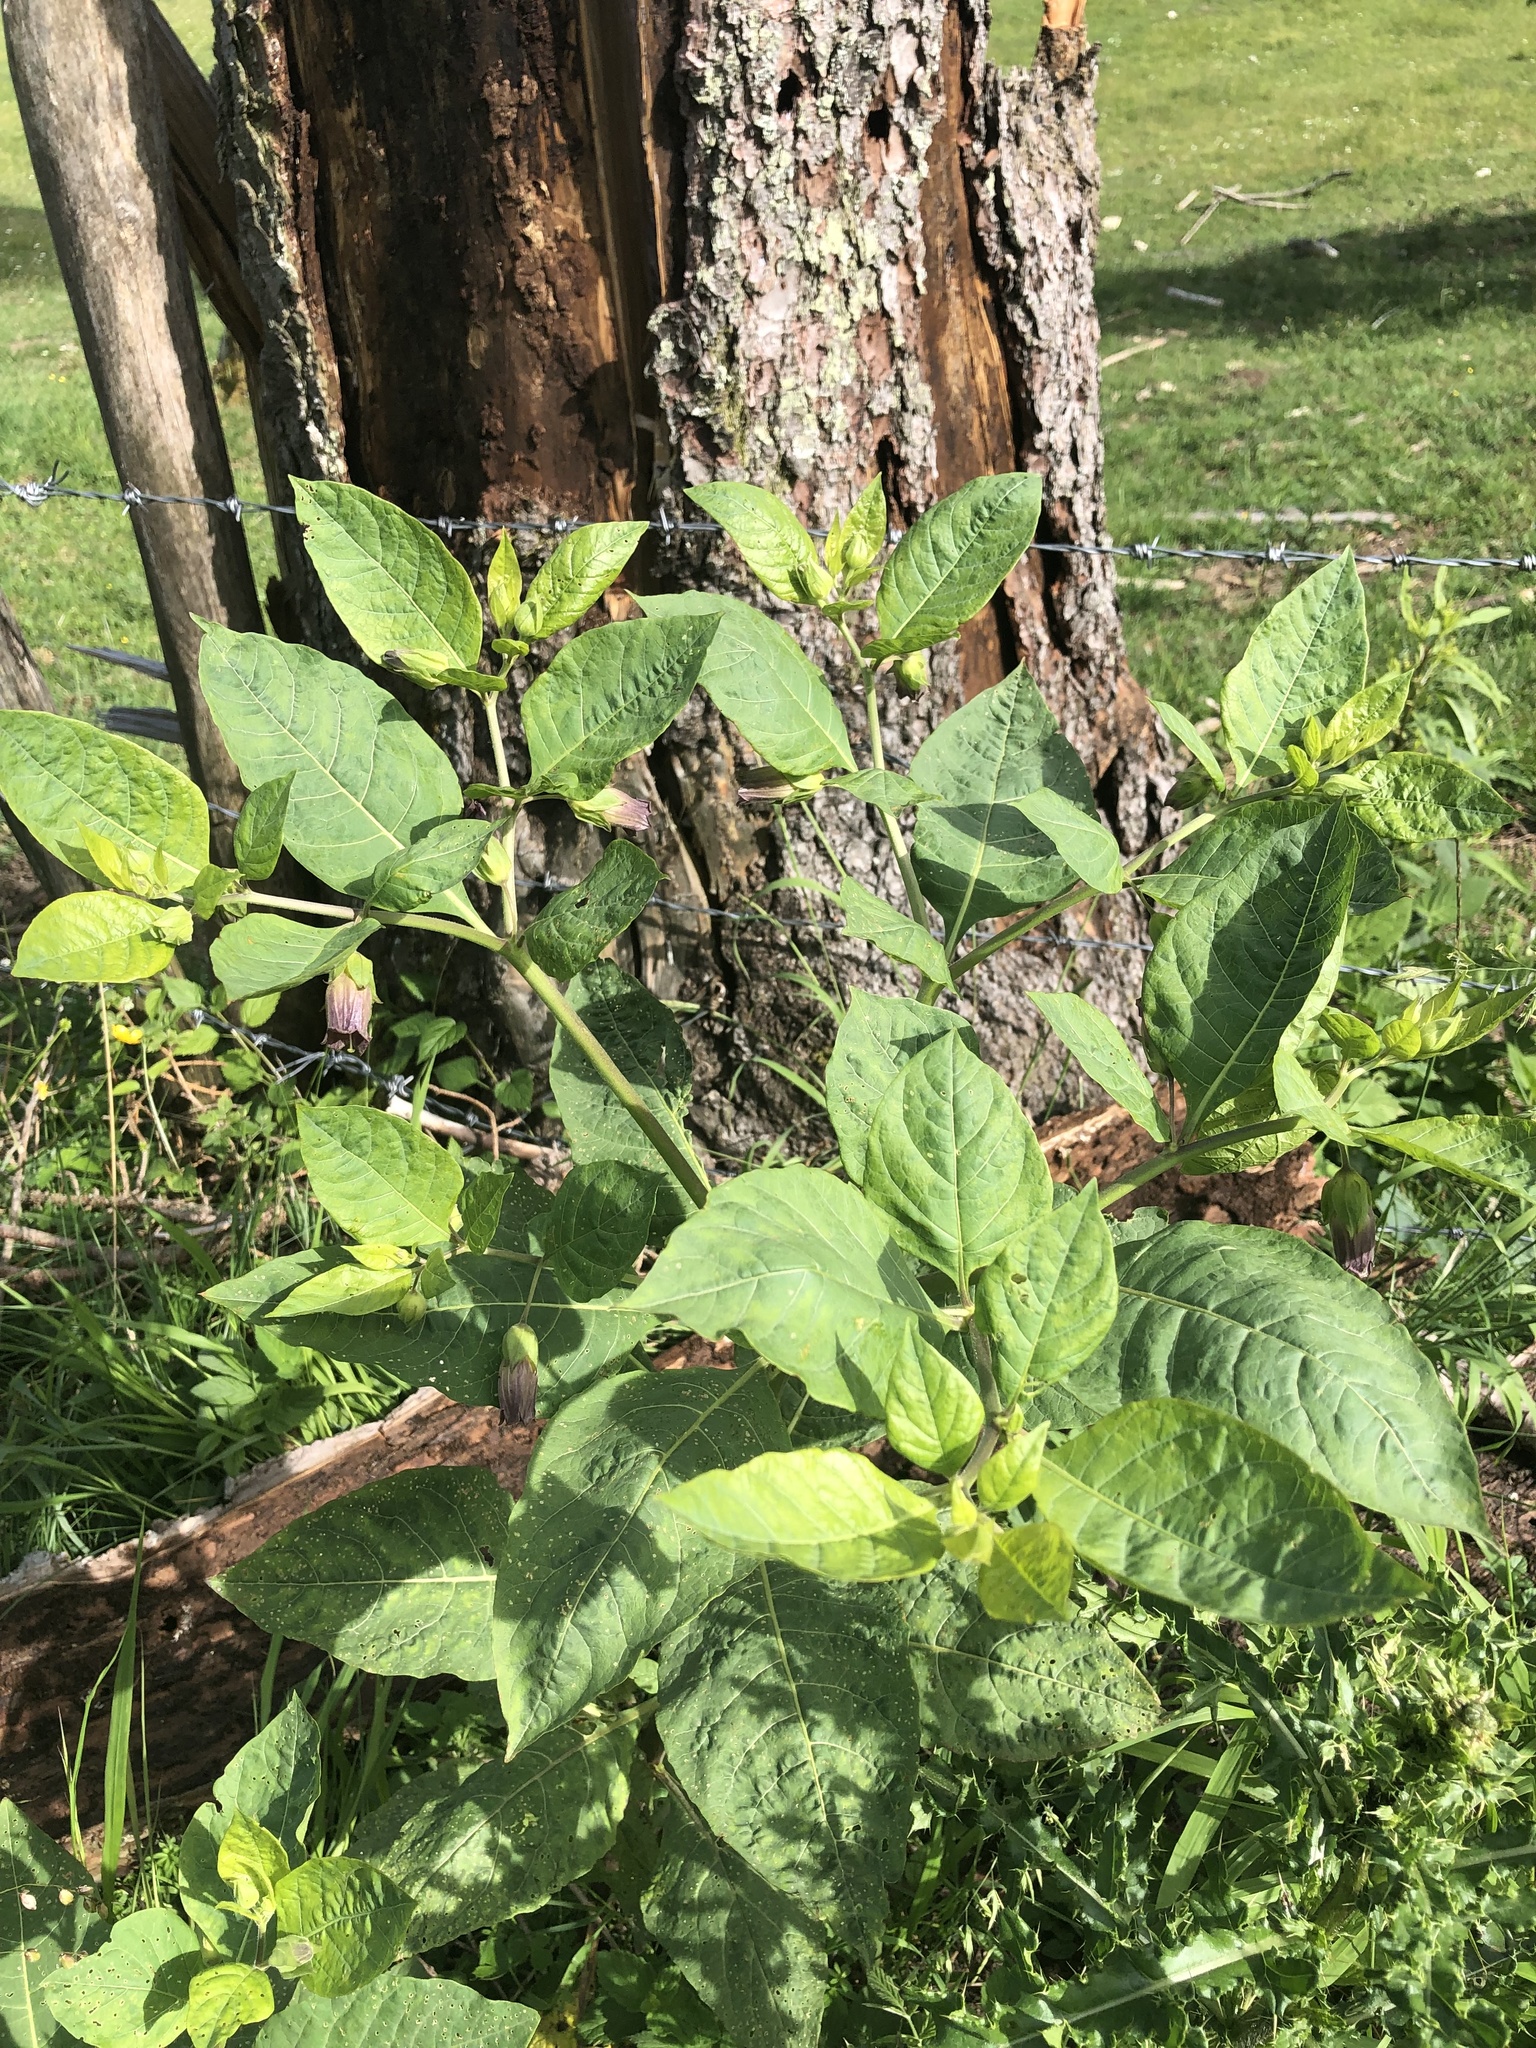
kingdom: Plantae
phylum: Tracheophyta
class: Magnoliopsida
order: Solanales
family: Solanaceae
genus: Atropa
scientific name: Atropa belladonna
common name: Deadly nightshade
